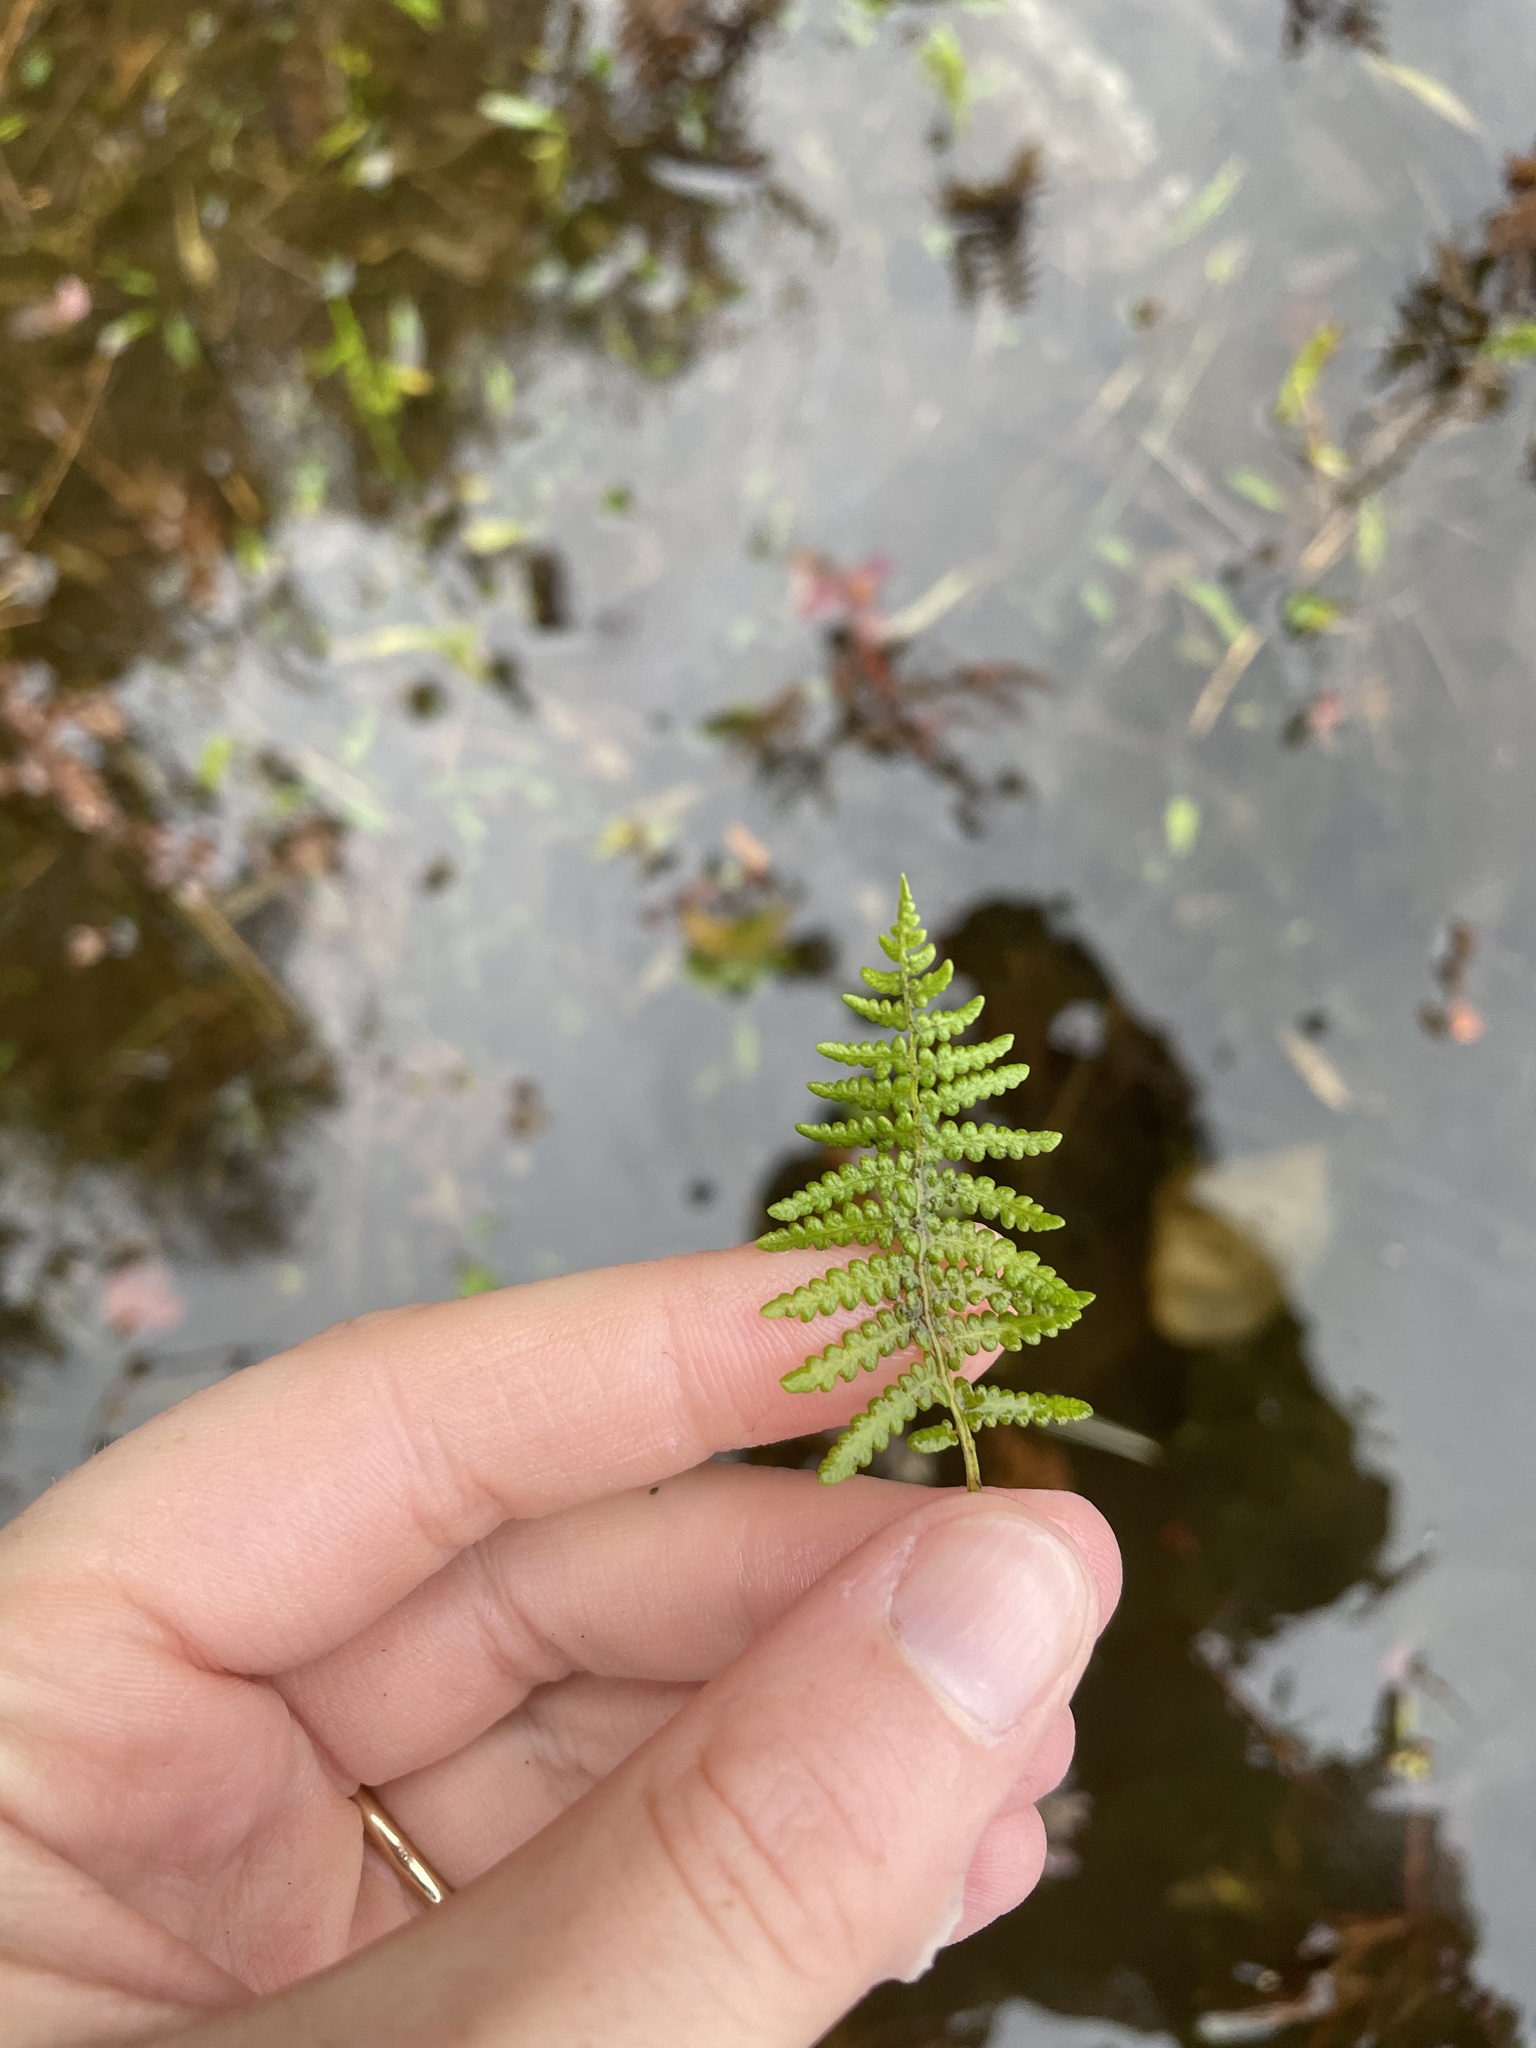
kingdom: Plantae
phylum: Tracheophyta
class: Polypodiopsida
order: Polypodiales
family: Thelypteridaceae
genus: Thelypteris
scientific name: Thelypteris palustris
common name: Marsh fern
